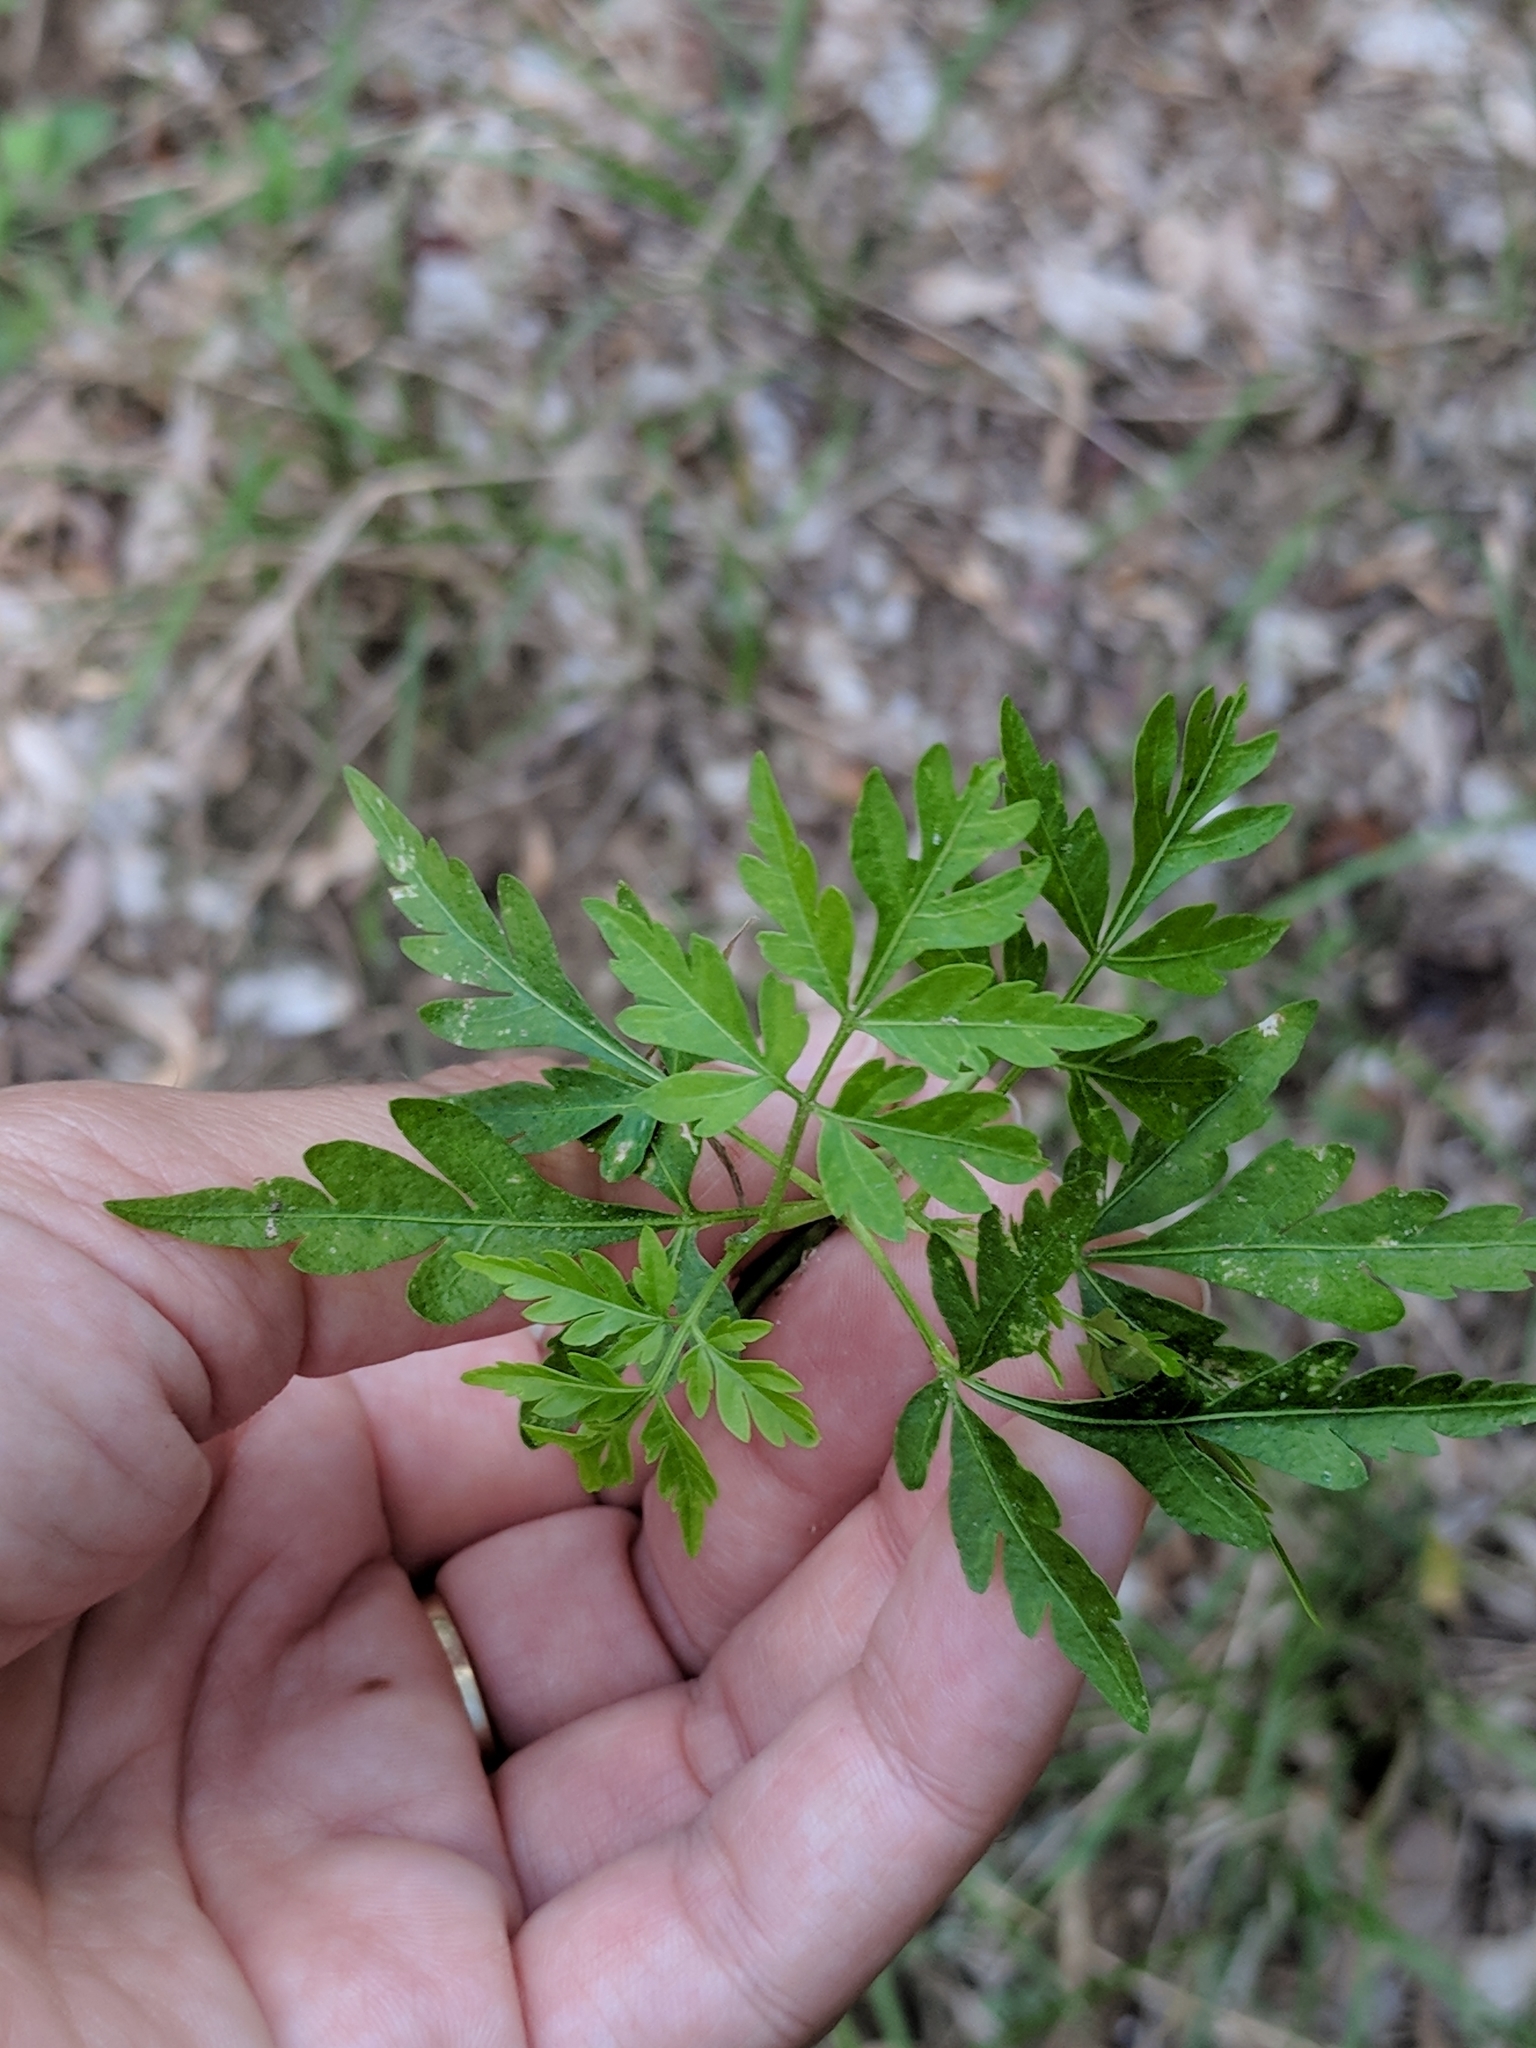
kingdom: Plantae
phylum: Tracheophyta
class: Magnoliopsida
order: Sapindales
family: Meliaceae
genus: Melia
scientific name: Melia azedarach
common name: Chinaberrytree
